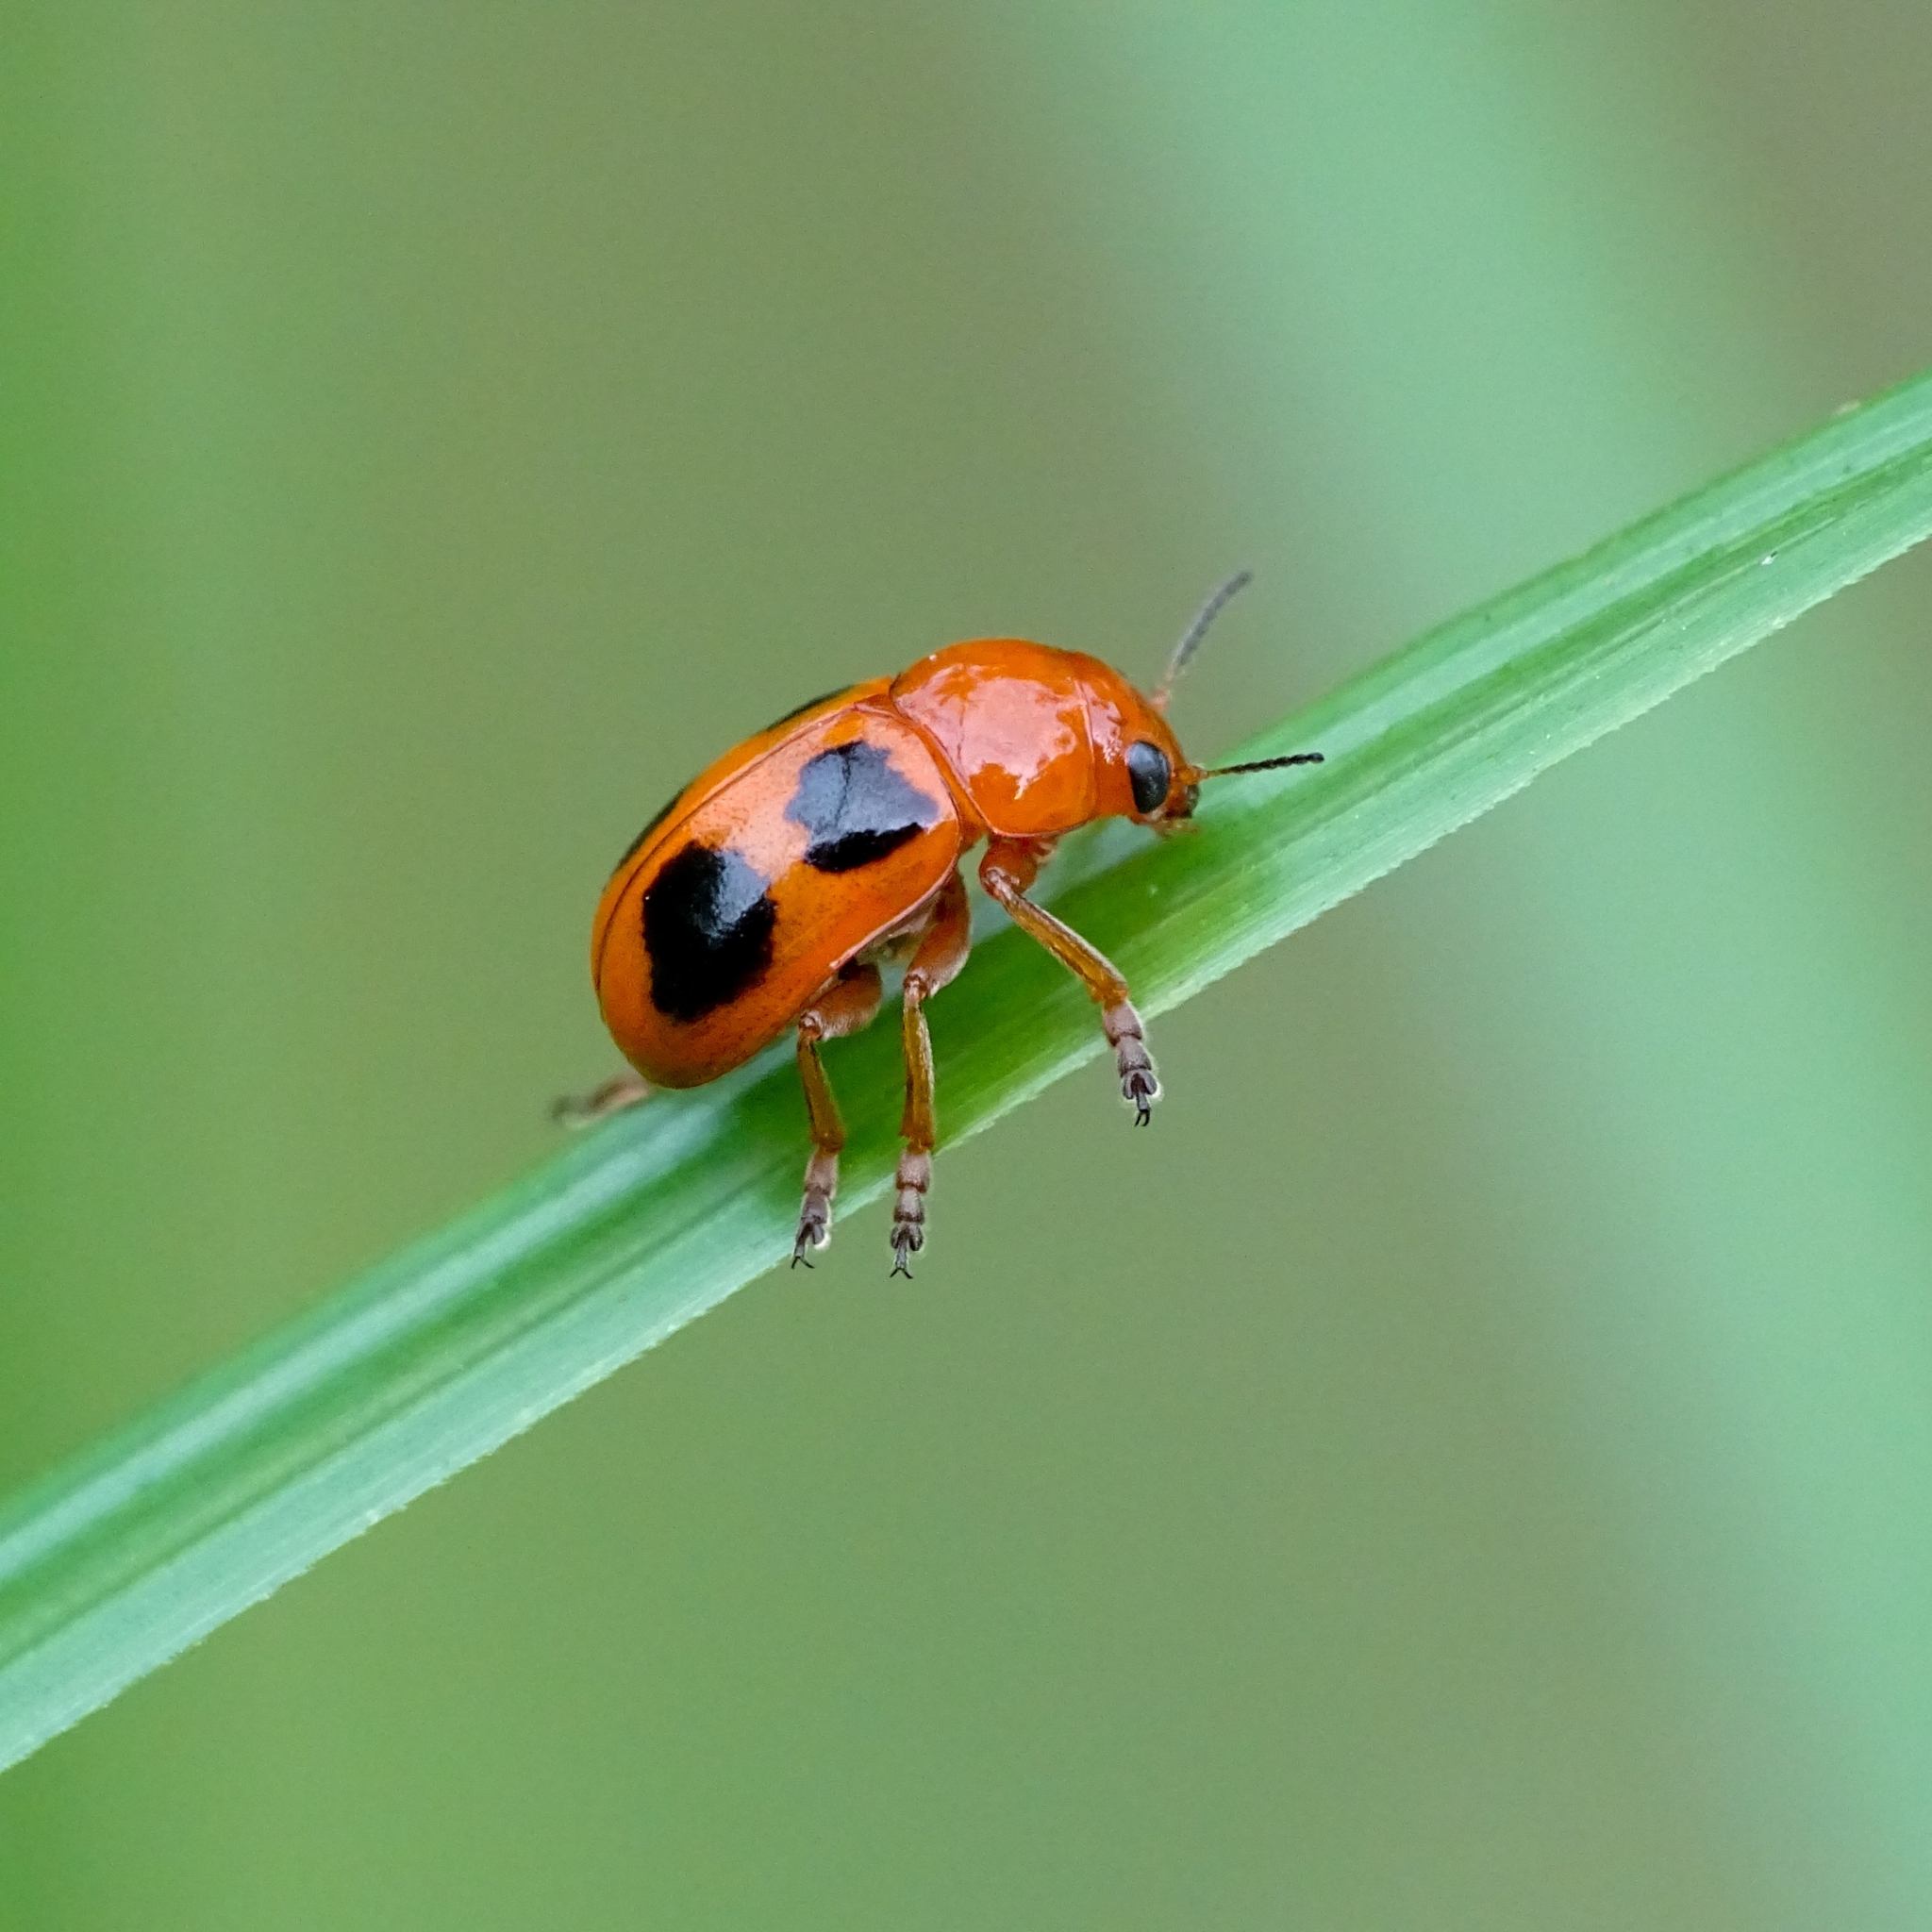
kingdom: Animalia
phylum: Arthropoda
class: Insecta
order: Coleoptera
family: Chrysomelidae
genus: Coptocephala
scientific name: Coptocephala
